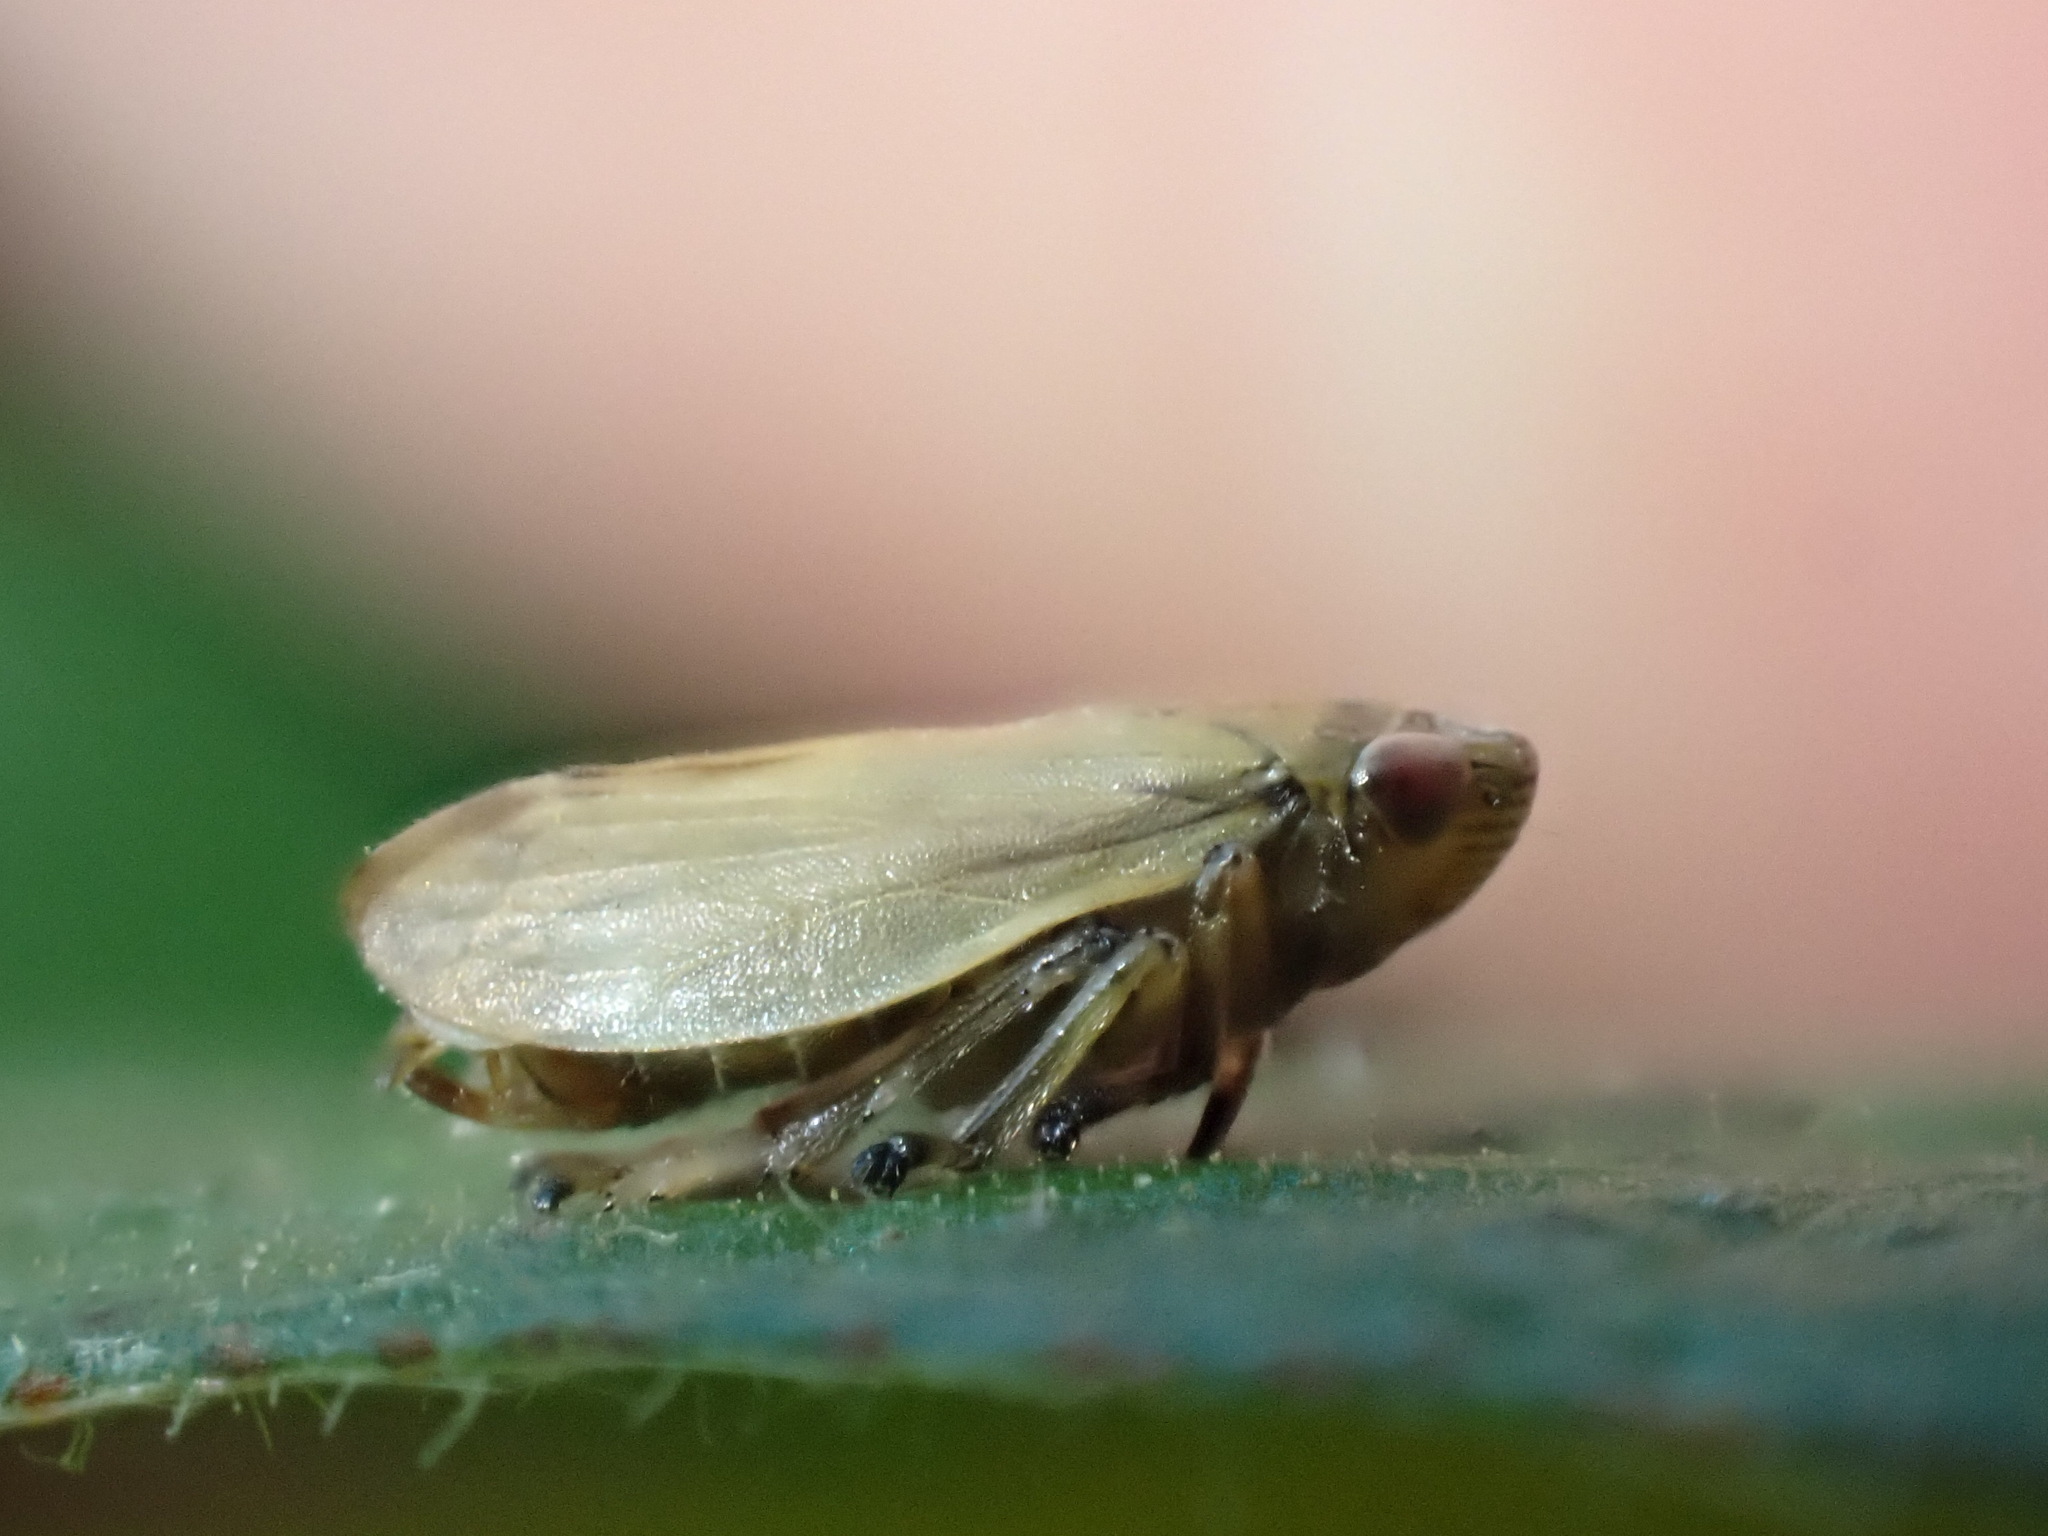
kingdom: Animalia
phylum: Arthropoda
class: Insecta
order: Hemiptera
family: Aphrophoridae
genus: Philaenus
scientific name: Philaenus spumarius
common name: Meadow spittlebug
